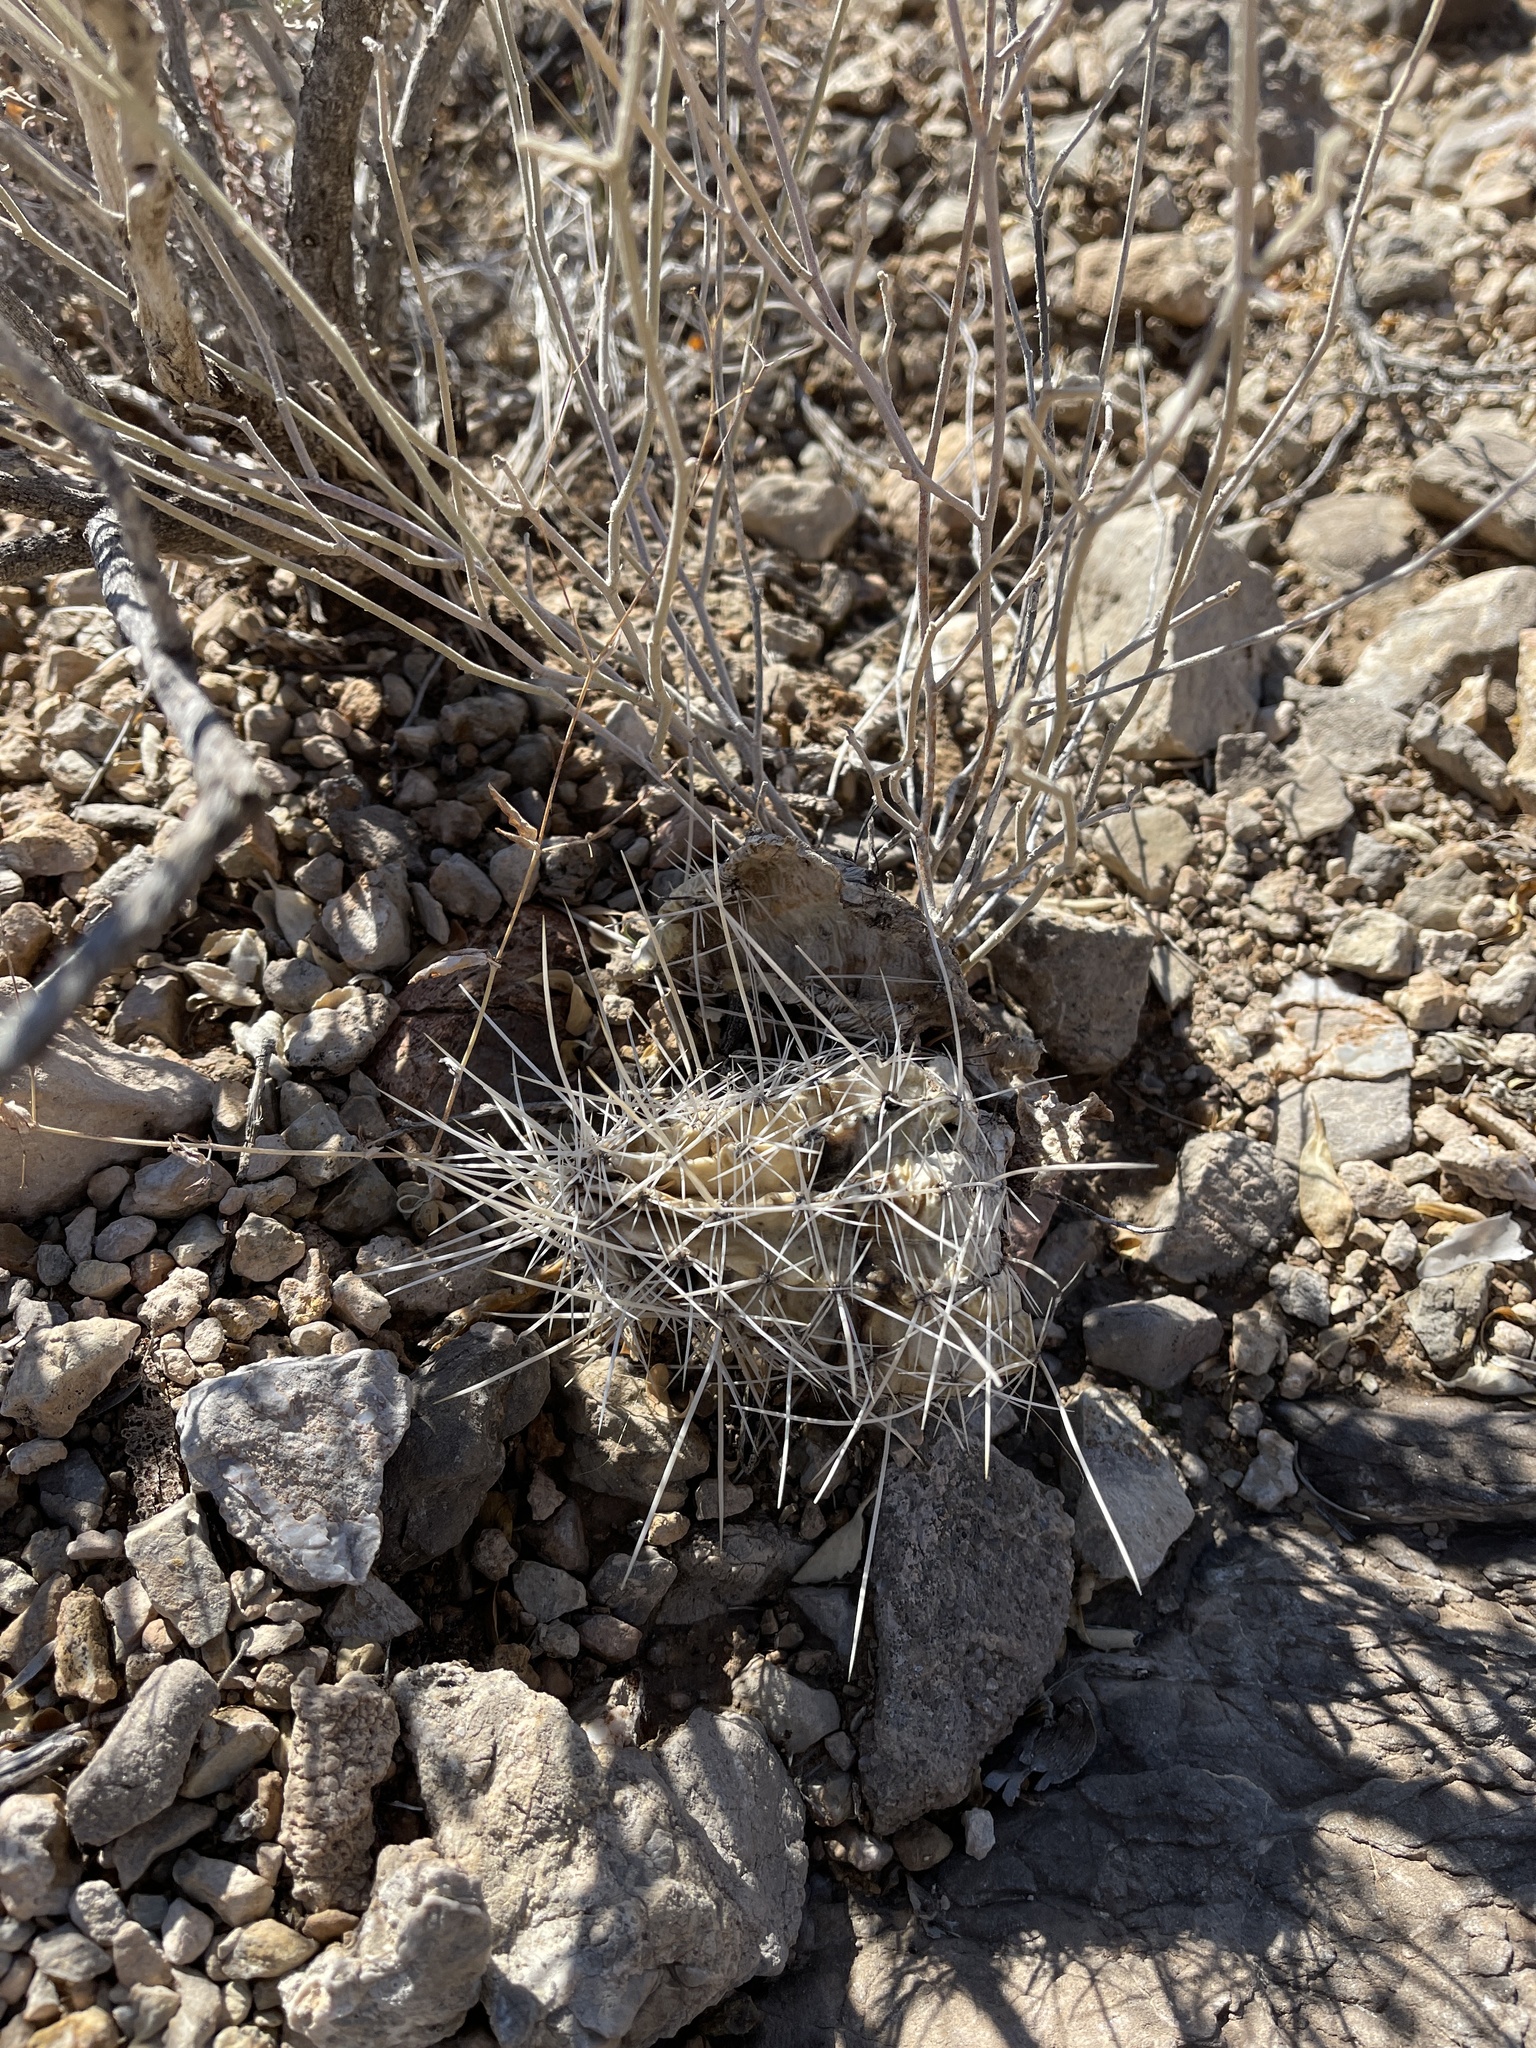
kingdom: Plantae
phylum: Tracheophyta
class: Magnoliopsida
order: Caryophyllales
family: Cactaceae
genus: Echinocereus
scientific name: Echinocereus stramineus
